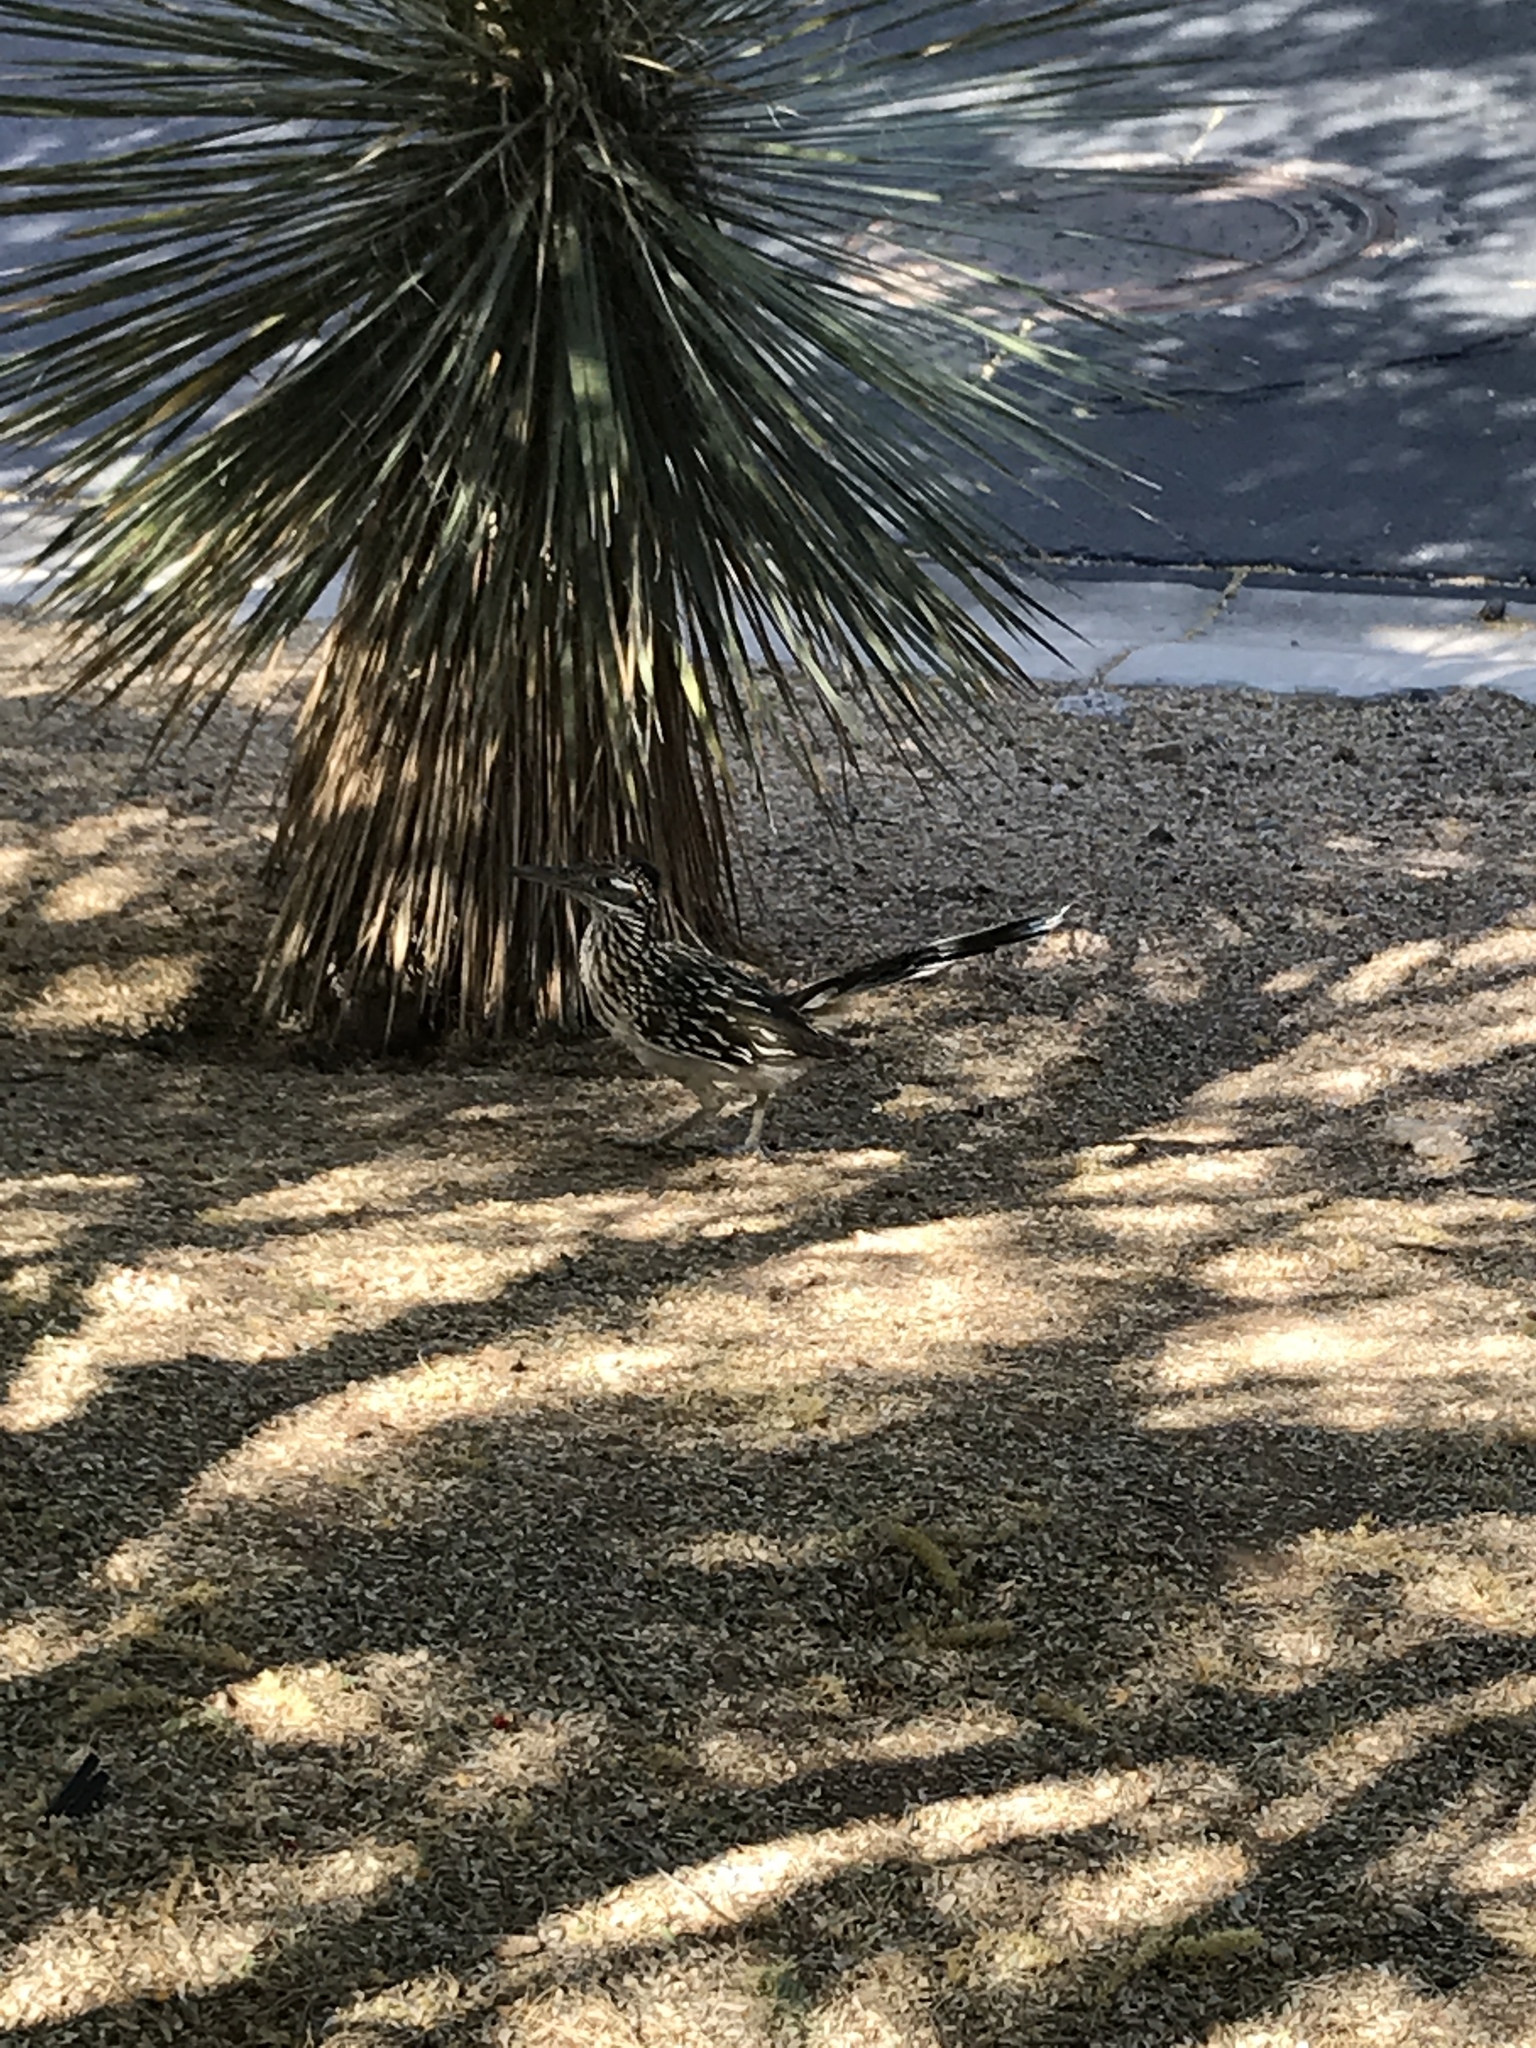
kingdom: Animalia
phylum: Chordata
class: Aves
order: Cuculiformes
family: Cuculidae
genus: Geococcyx
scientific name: Geococcyx californianus
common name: Greater roadrunner
